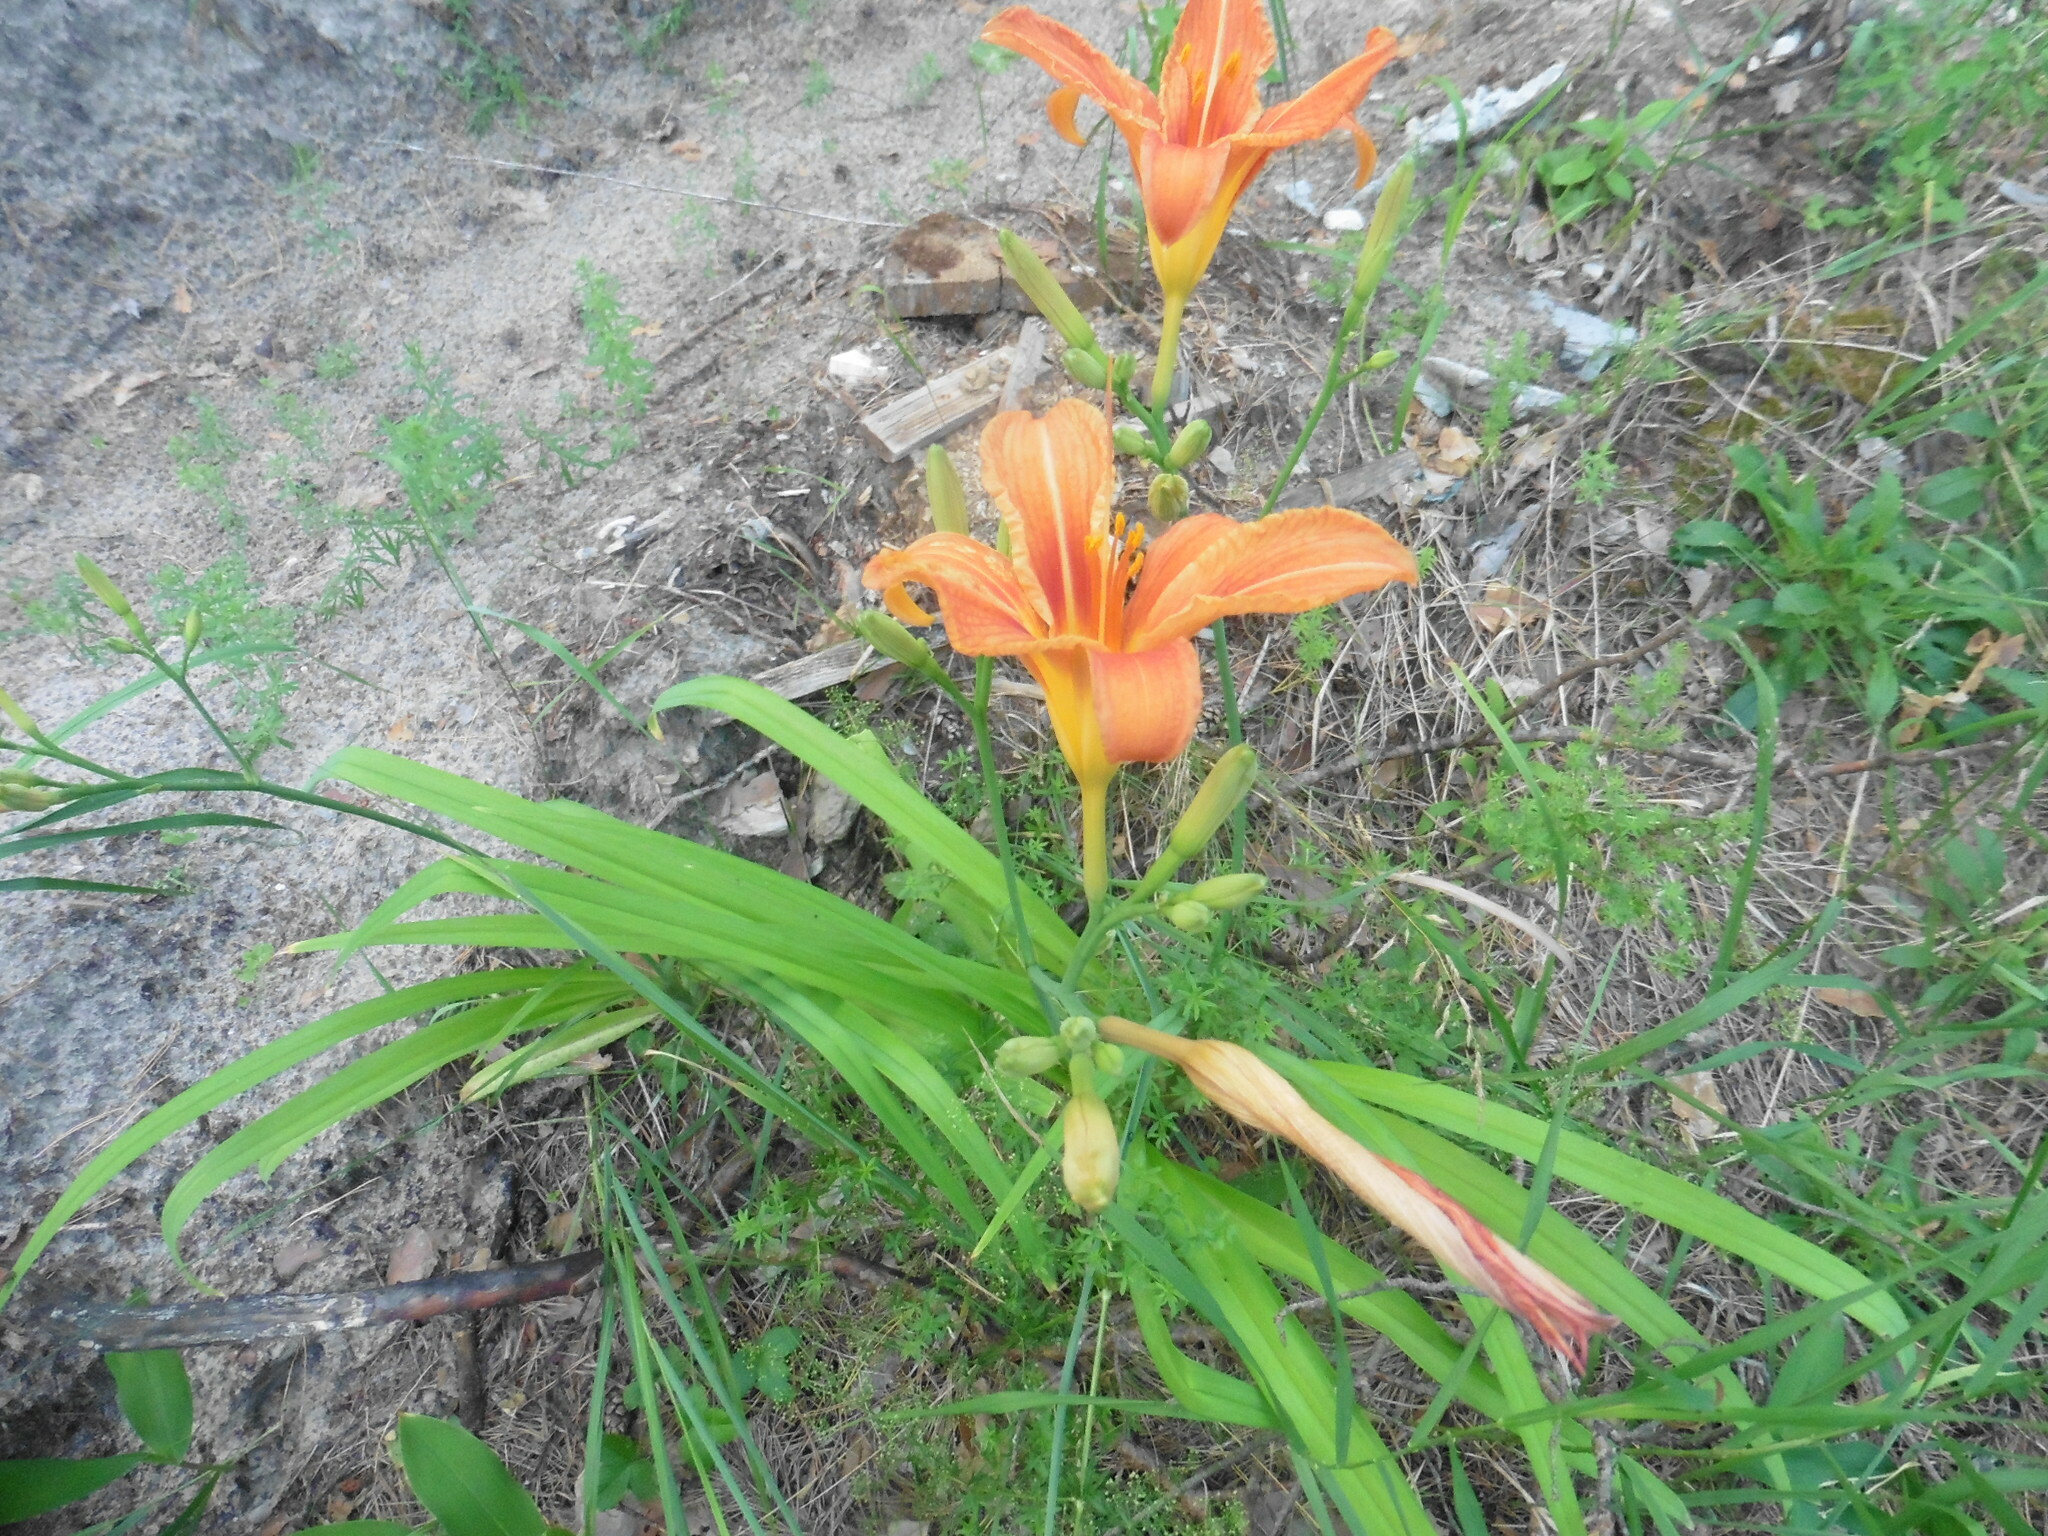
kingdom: Plantae
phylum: Tracheophyta
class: Liliopsida
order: Asparagales
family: Asphodelaceae
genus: Hemerocallis
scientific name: Hemerocallis fulva
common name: Orange day-lily
